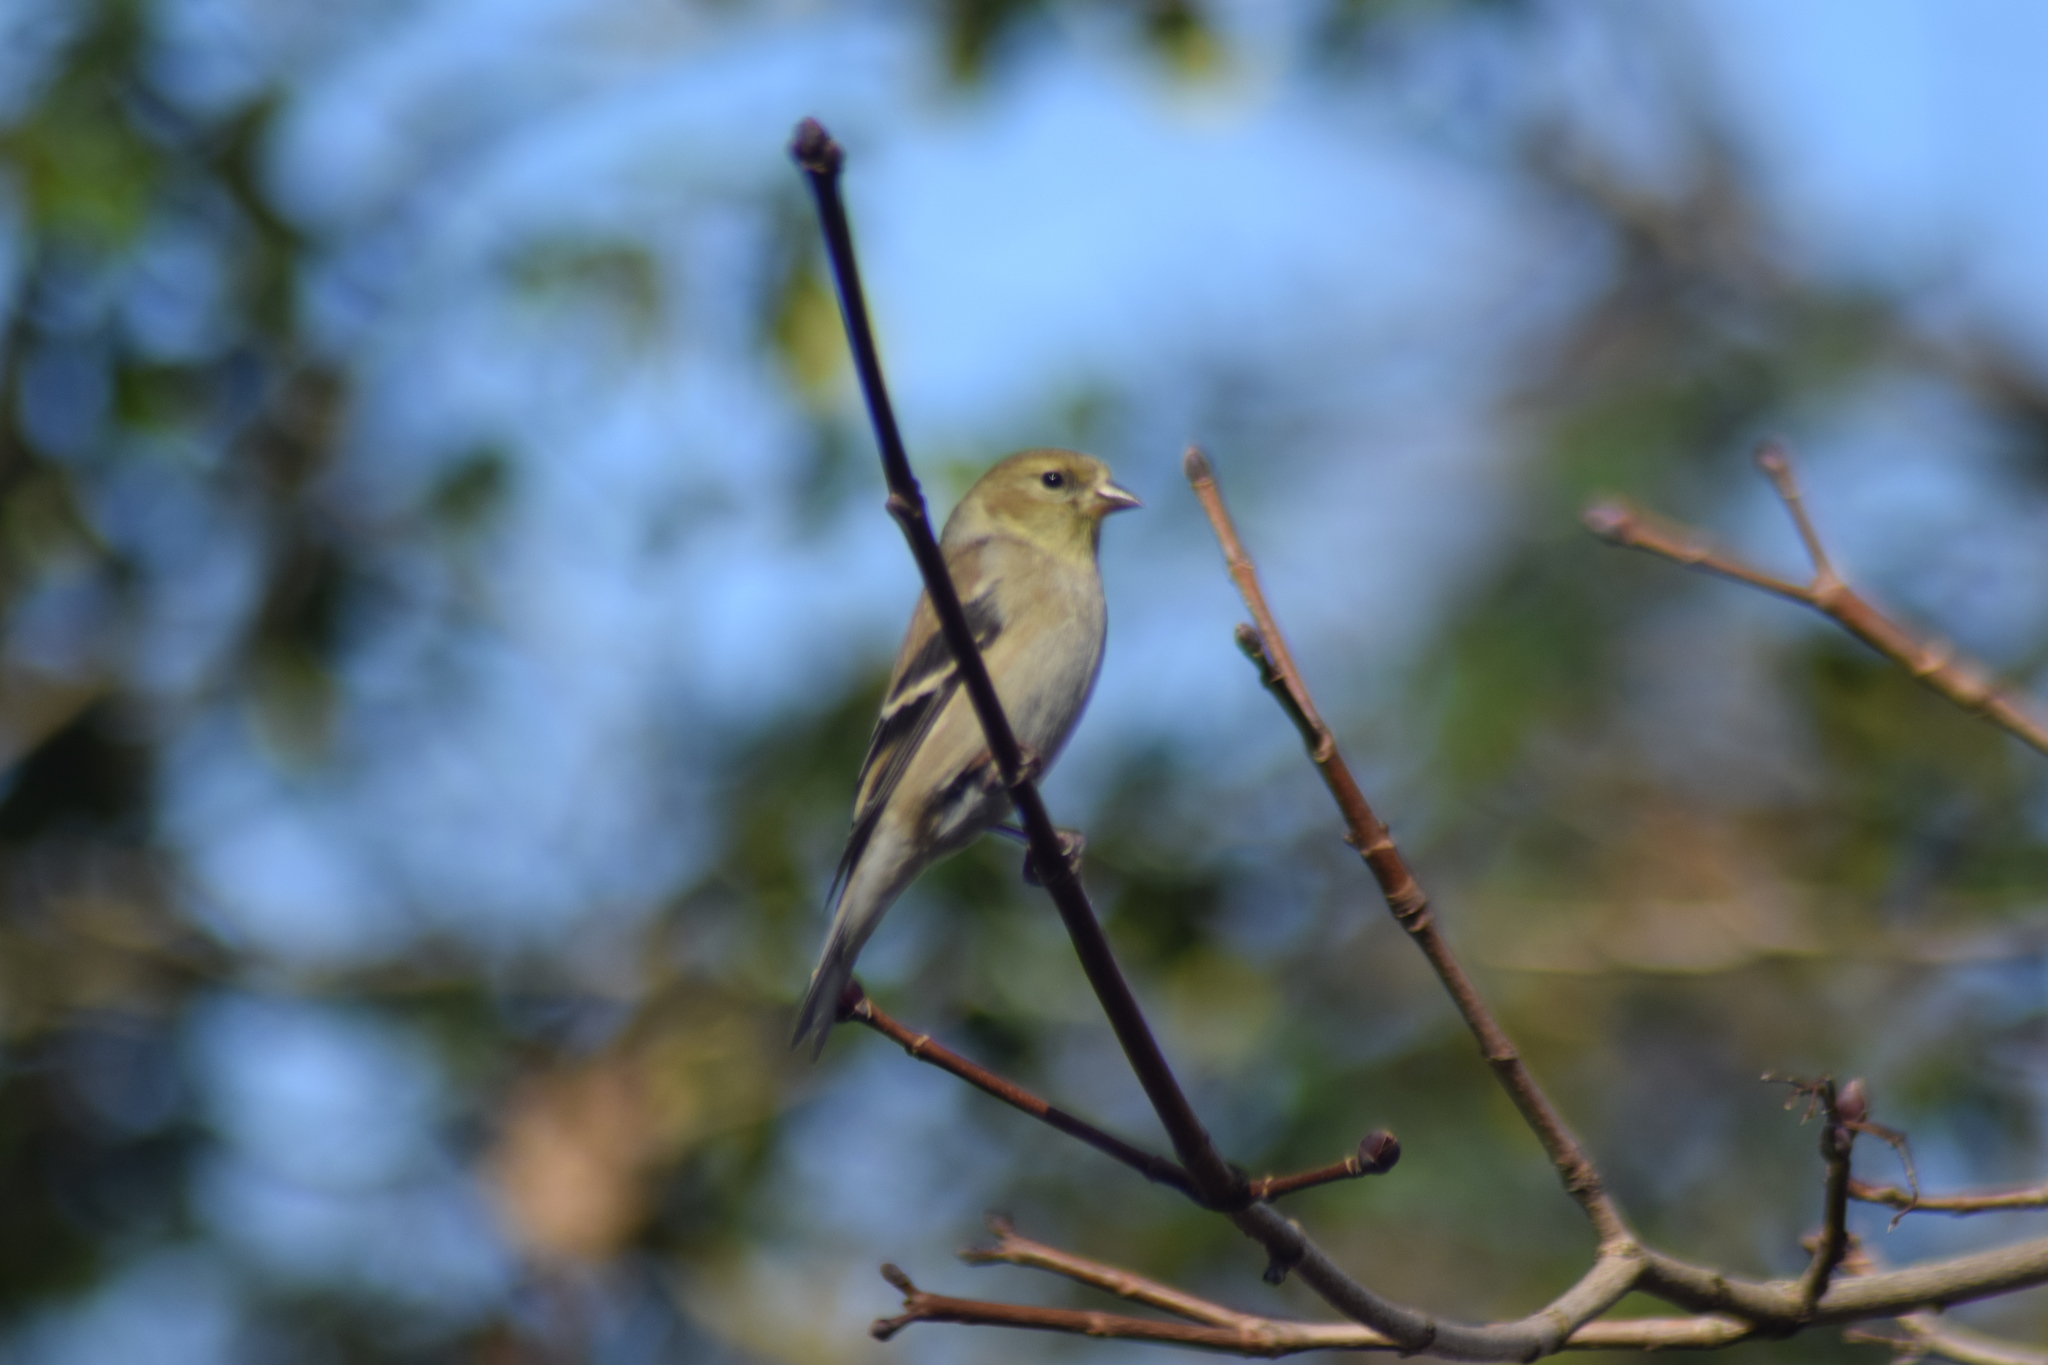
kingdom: Animalia
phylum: Chordata
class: Aves
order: Passeriformes
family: Fringillidae
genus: Spinus
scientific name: Spinus tristis
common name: American goldfinch
